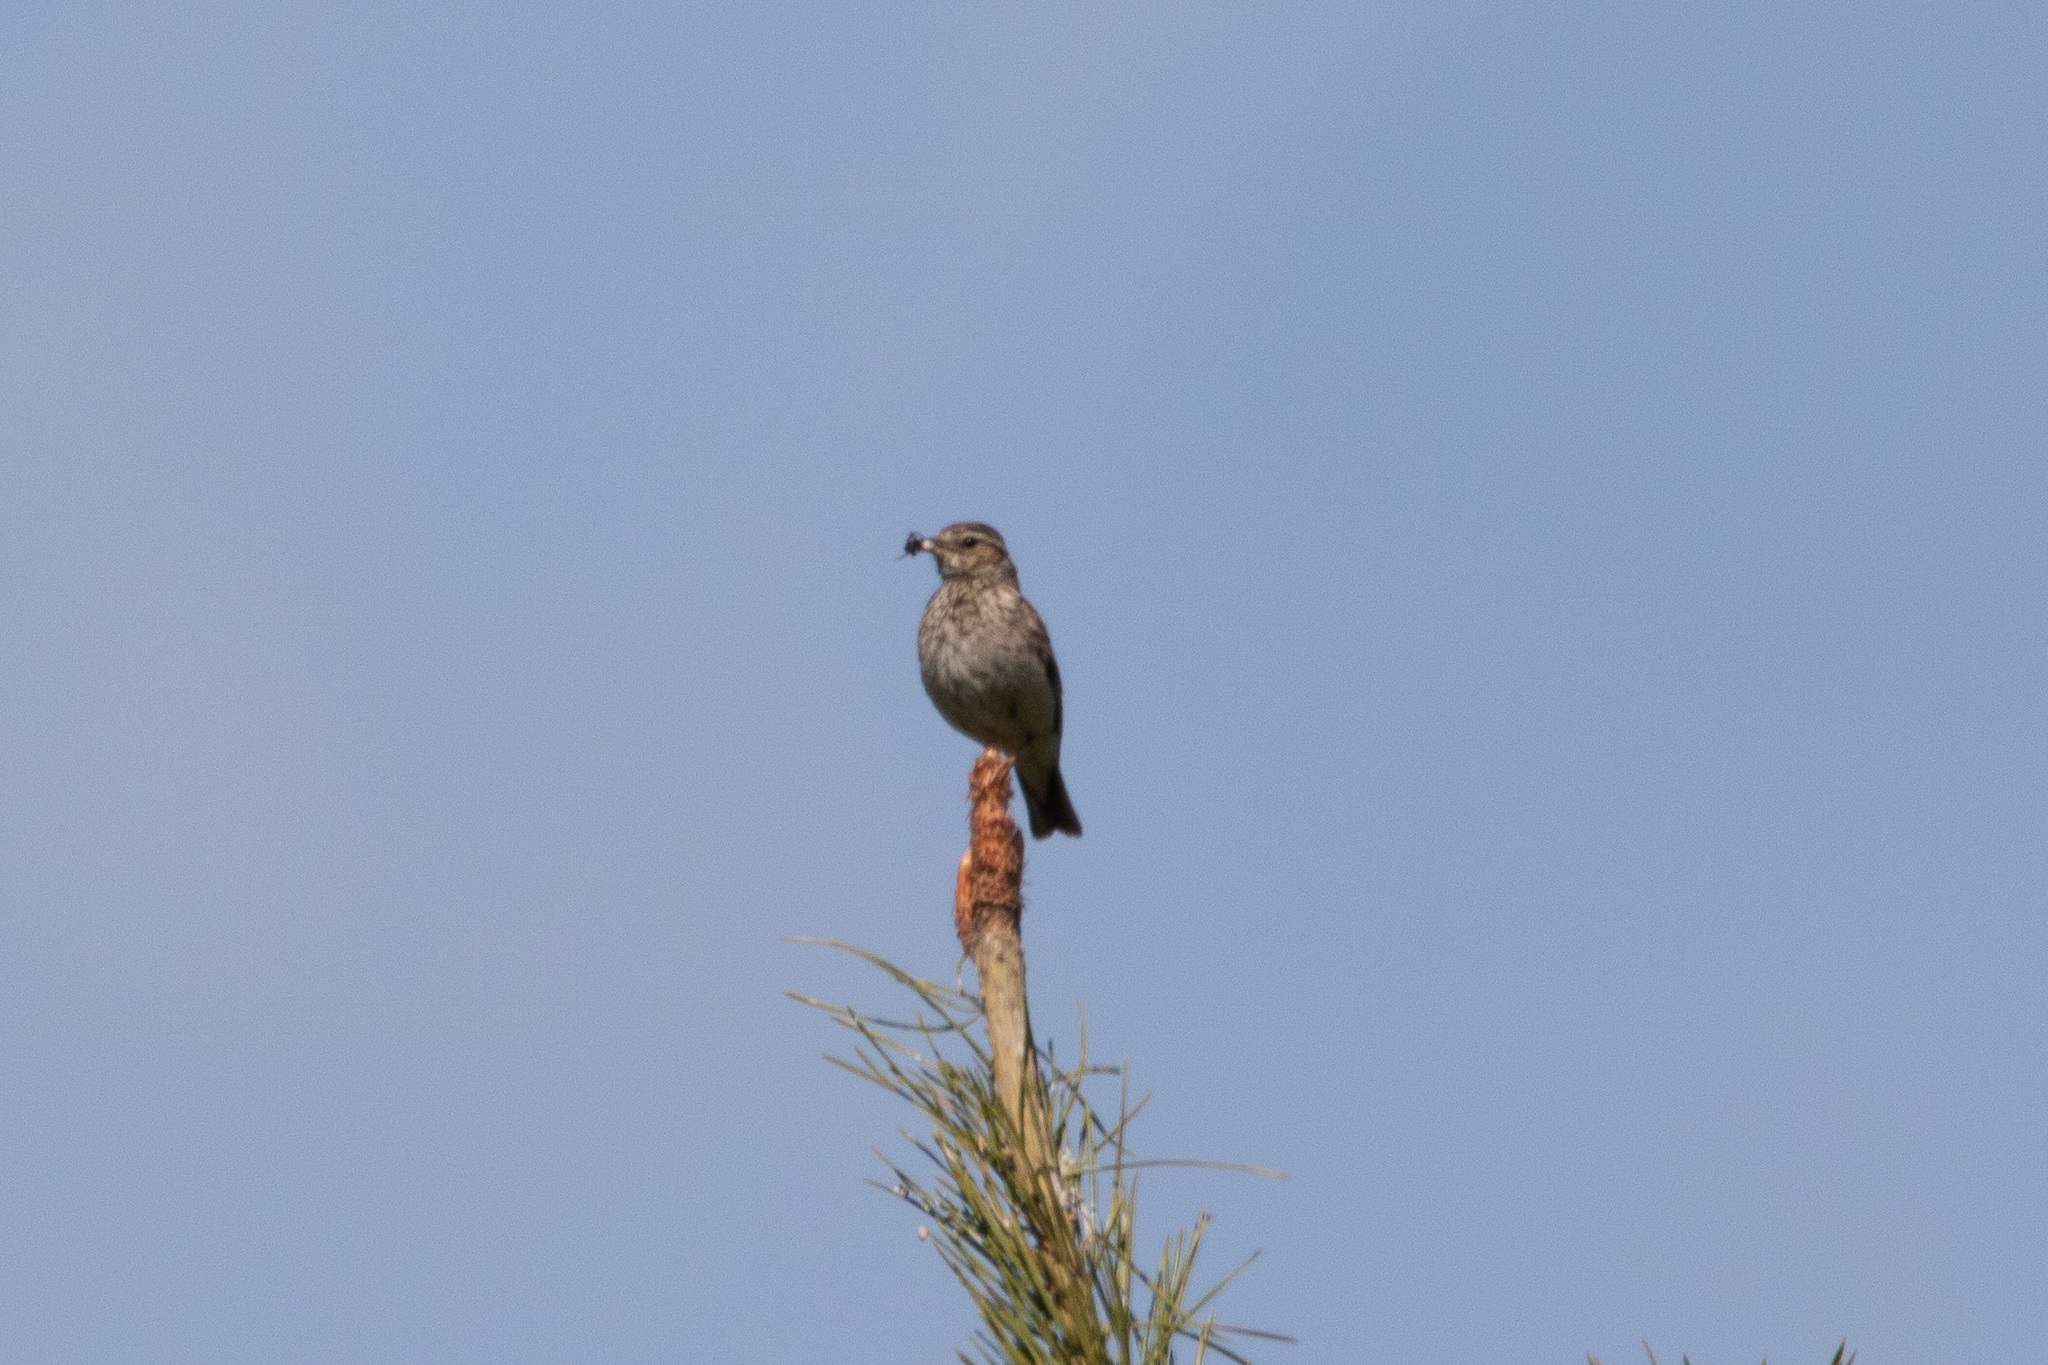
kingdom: Animalia
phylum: Chordata
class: Aves
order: Passeriformes
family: Alaudidae
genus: Lullula
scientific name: Lullula arborea
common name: Woodlark
